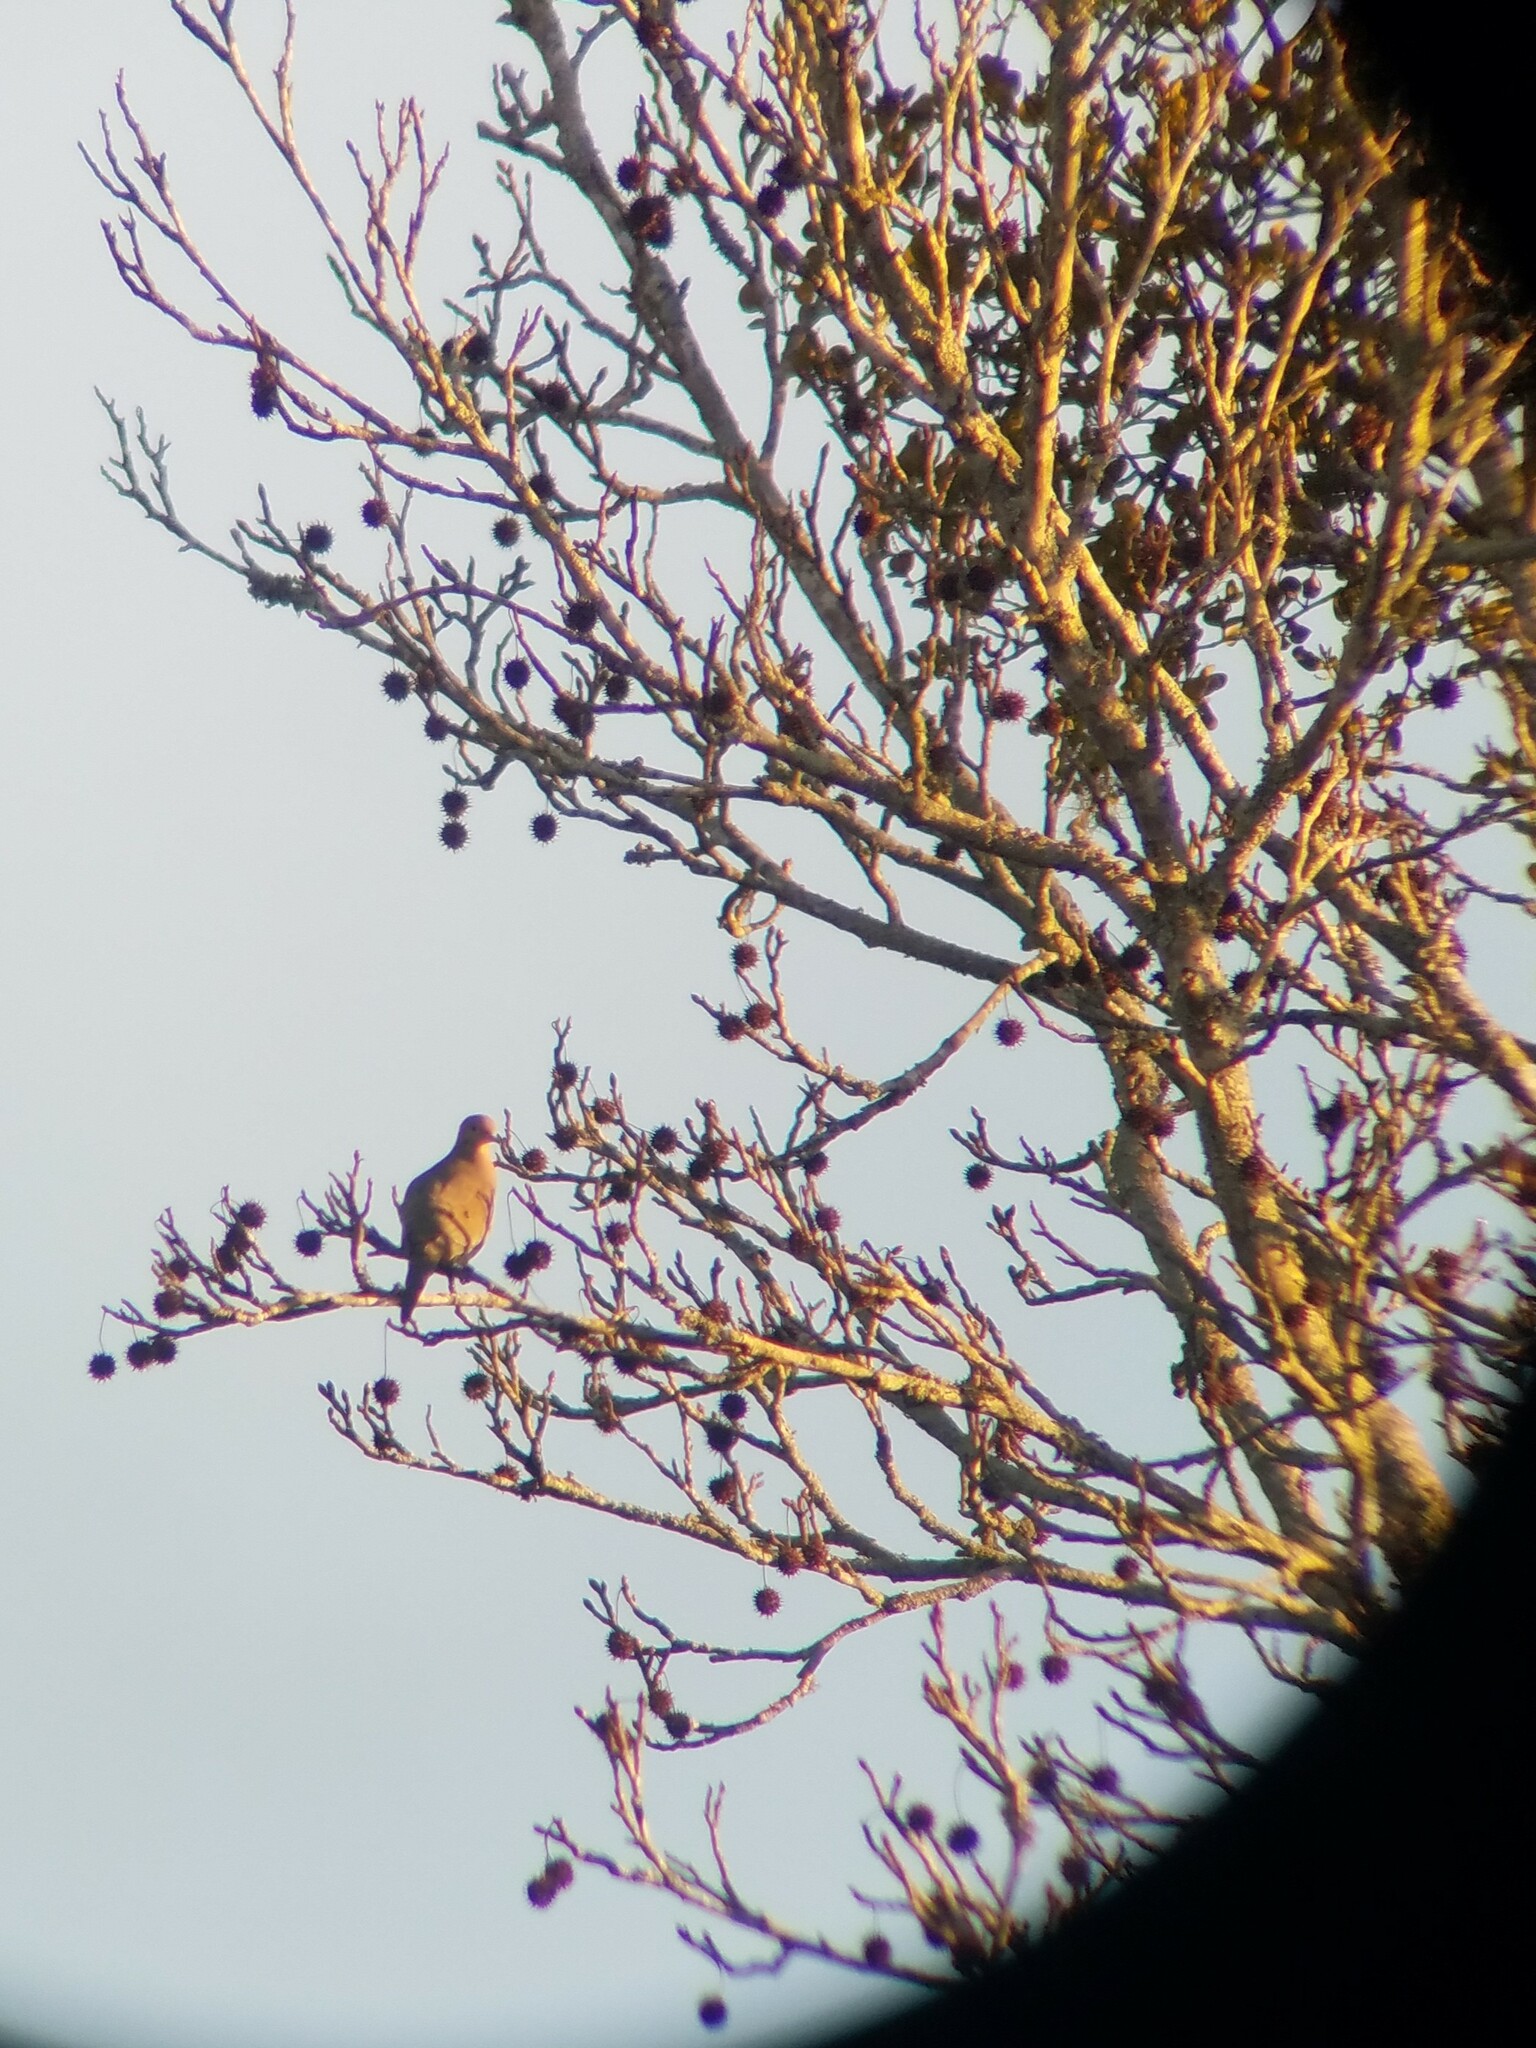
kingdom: Plantae
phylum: Tracheophyta
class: Magnoliopsida
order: Saxifragales
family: Altingiaceae
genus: Liquidambar
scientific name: Liquidambar styraciflua
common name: Sweet gum
